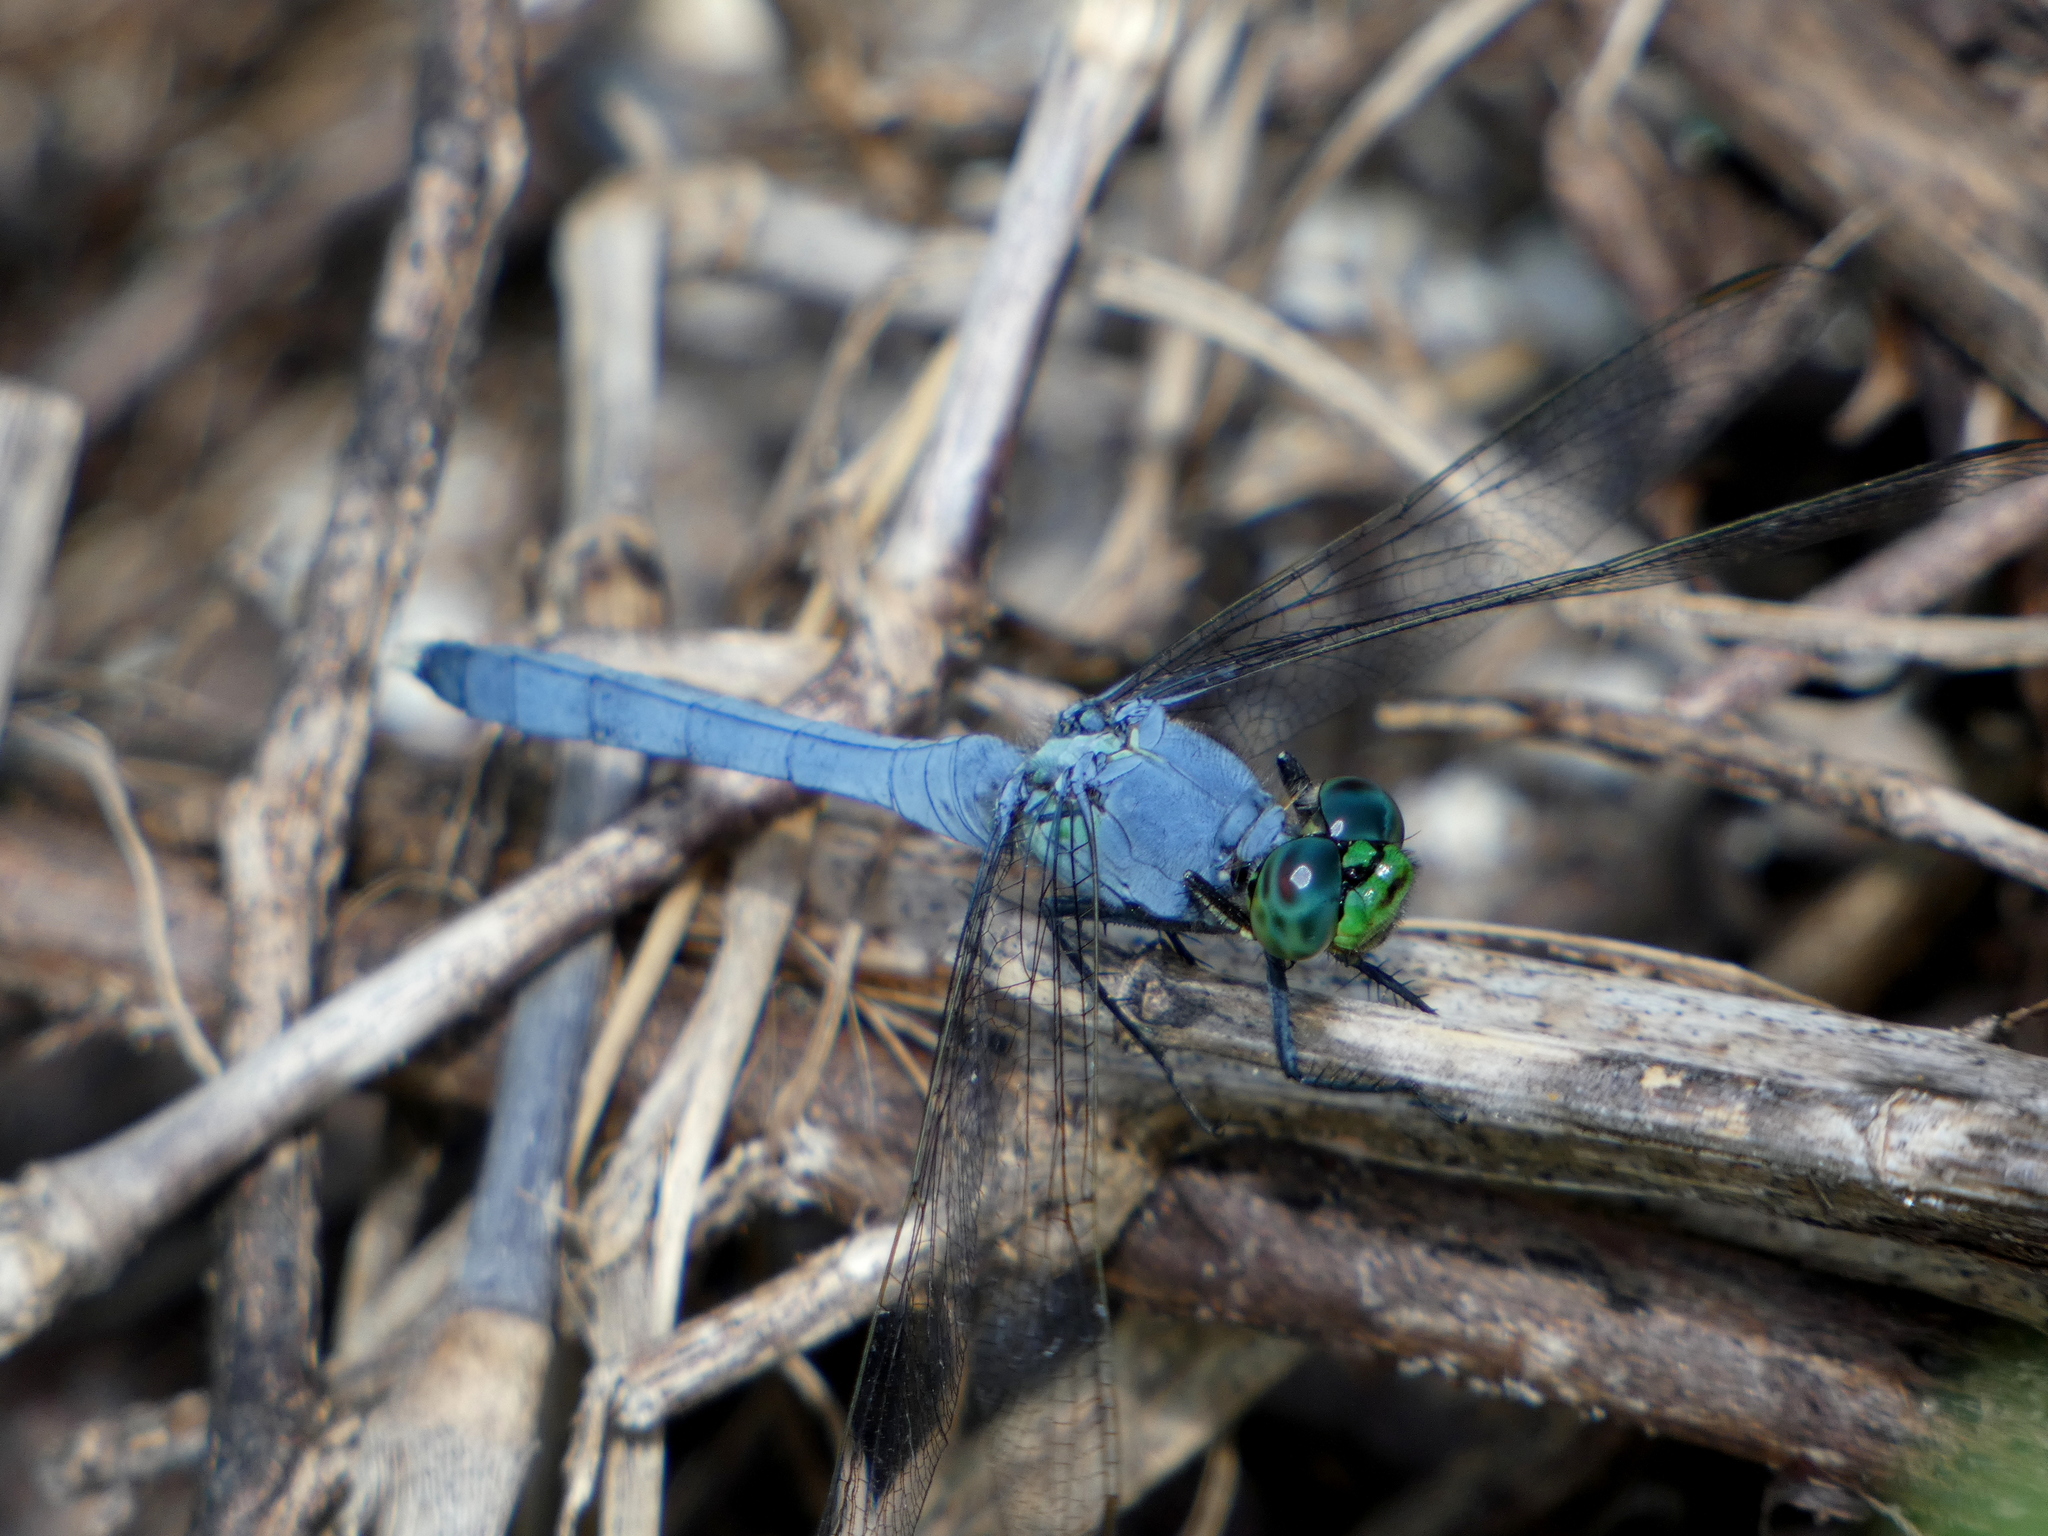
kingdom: Animalia
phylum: Arthropoda
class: Insecta
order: Odonata
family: Libellulidae
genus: Erythemis
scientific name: Erythemis simplicicollis
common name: Eastern pondhawk
